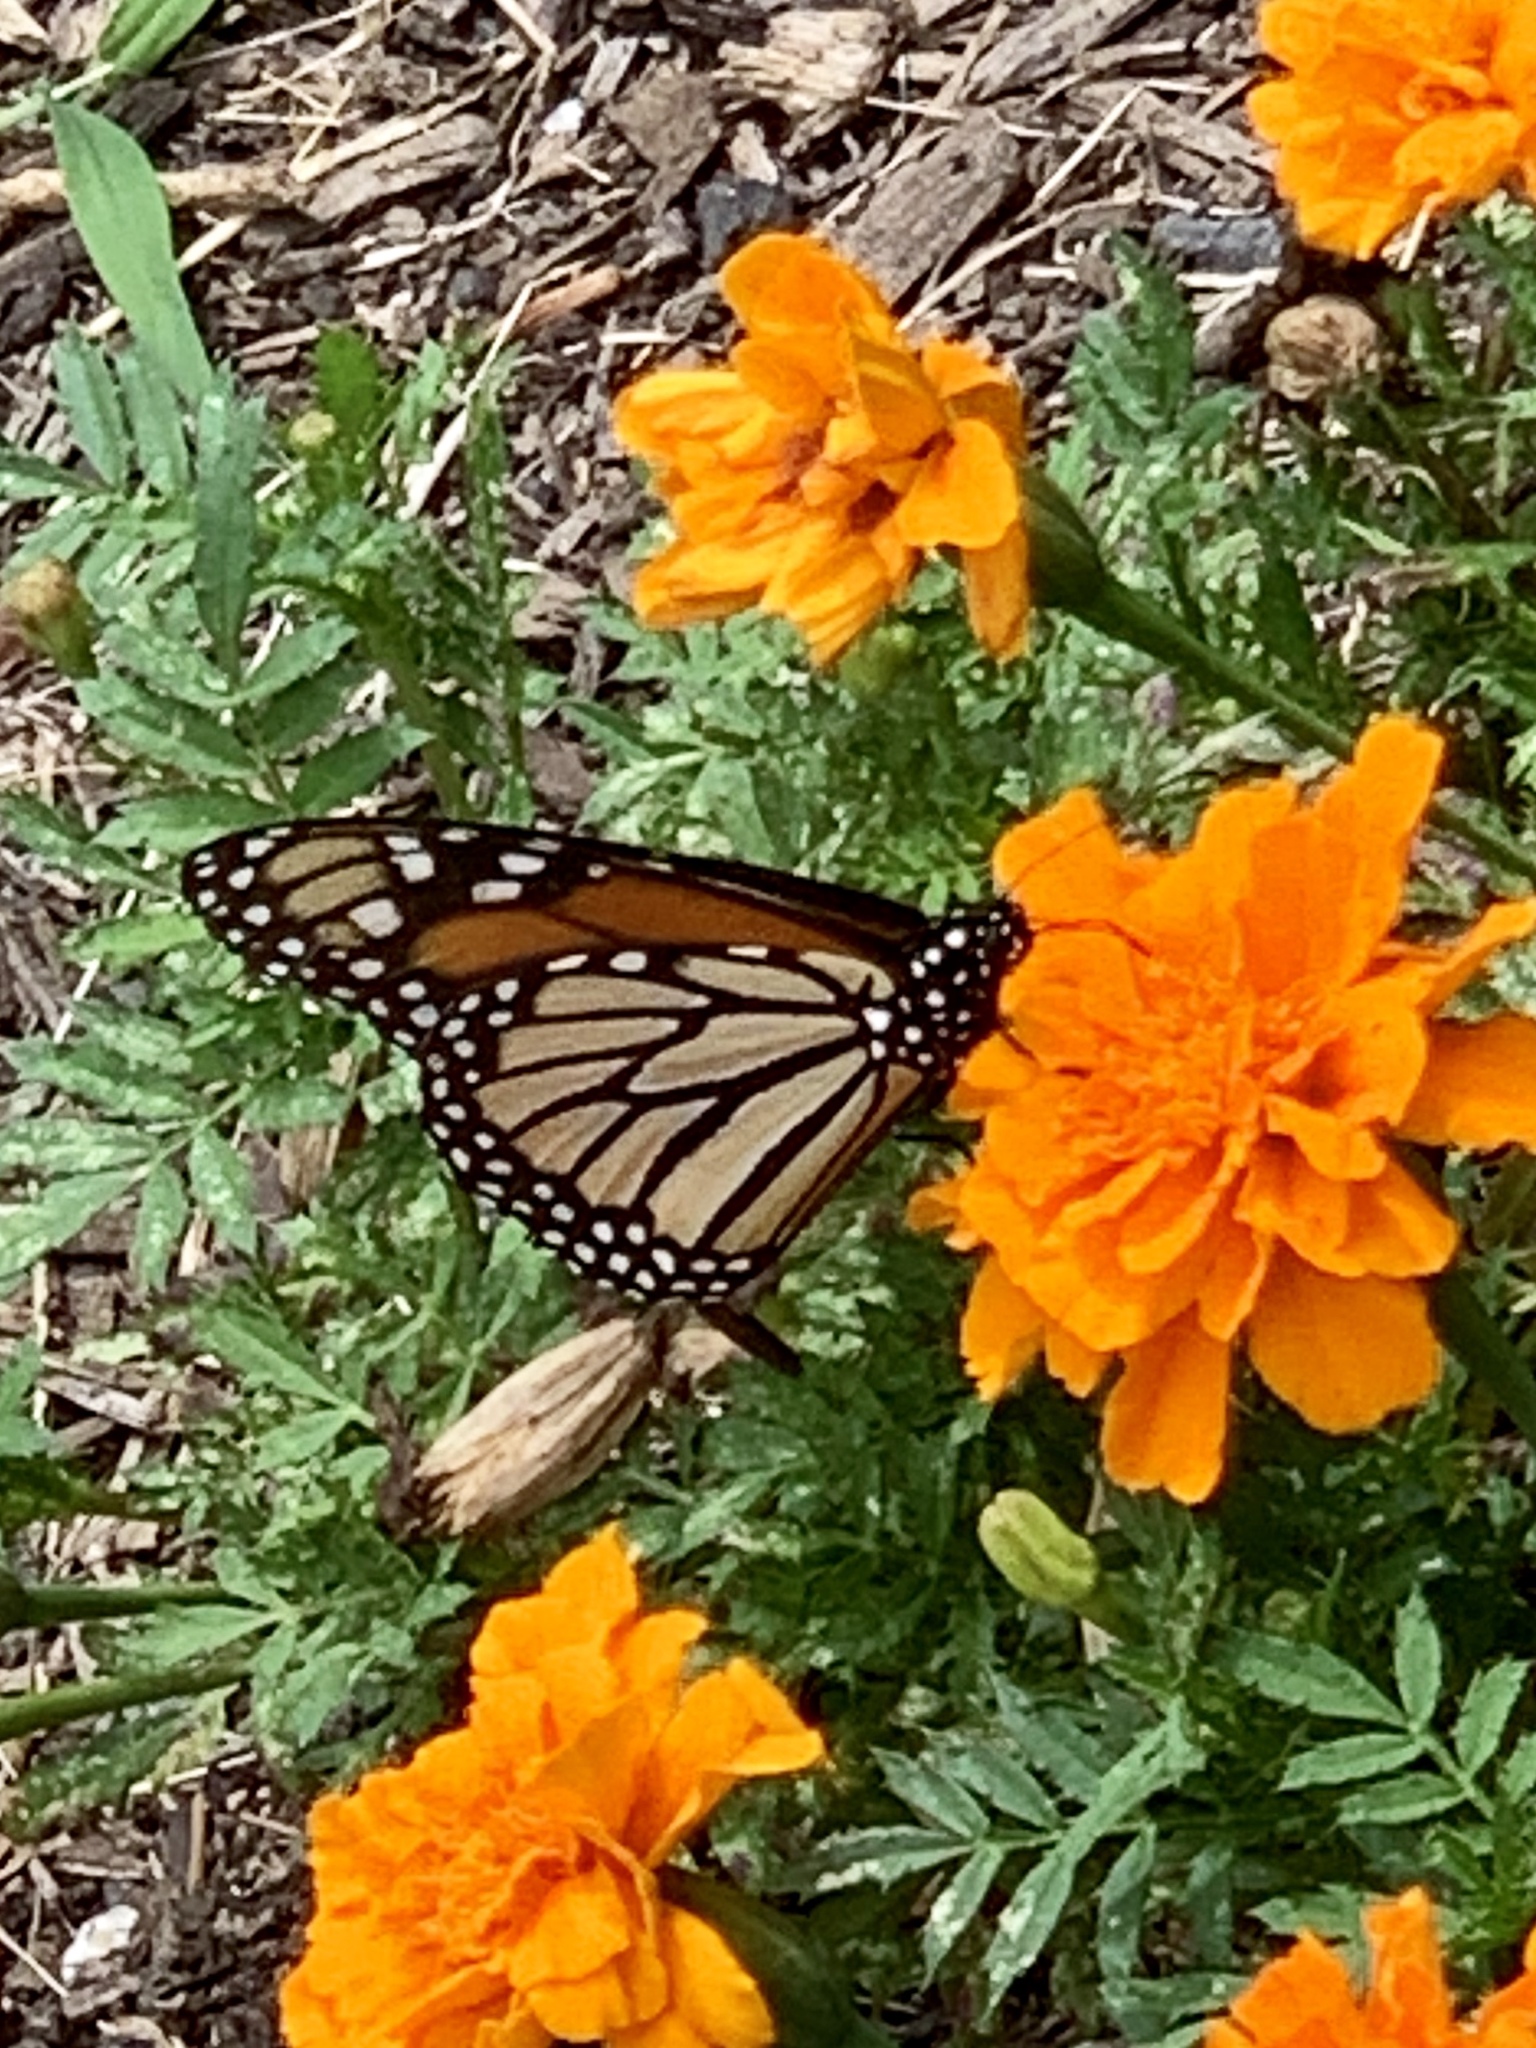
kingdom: Animalia
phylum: Arthropoda
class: Insecta
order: Lepidoptera
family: Nymphalidae
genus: Danaus
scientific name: Danaus plexippus
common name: Monarch
